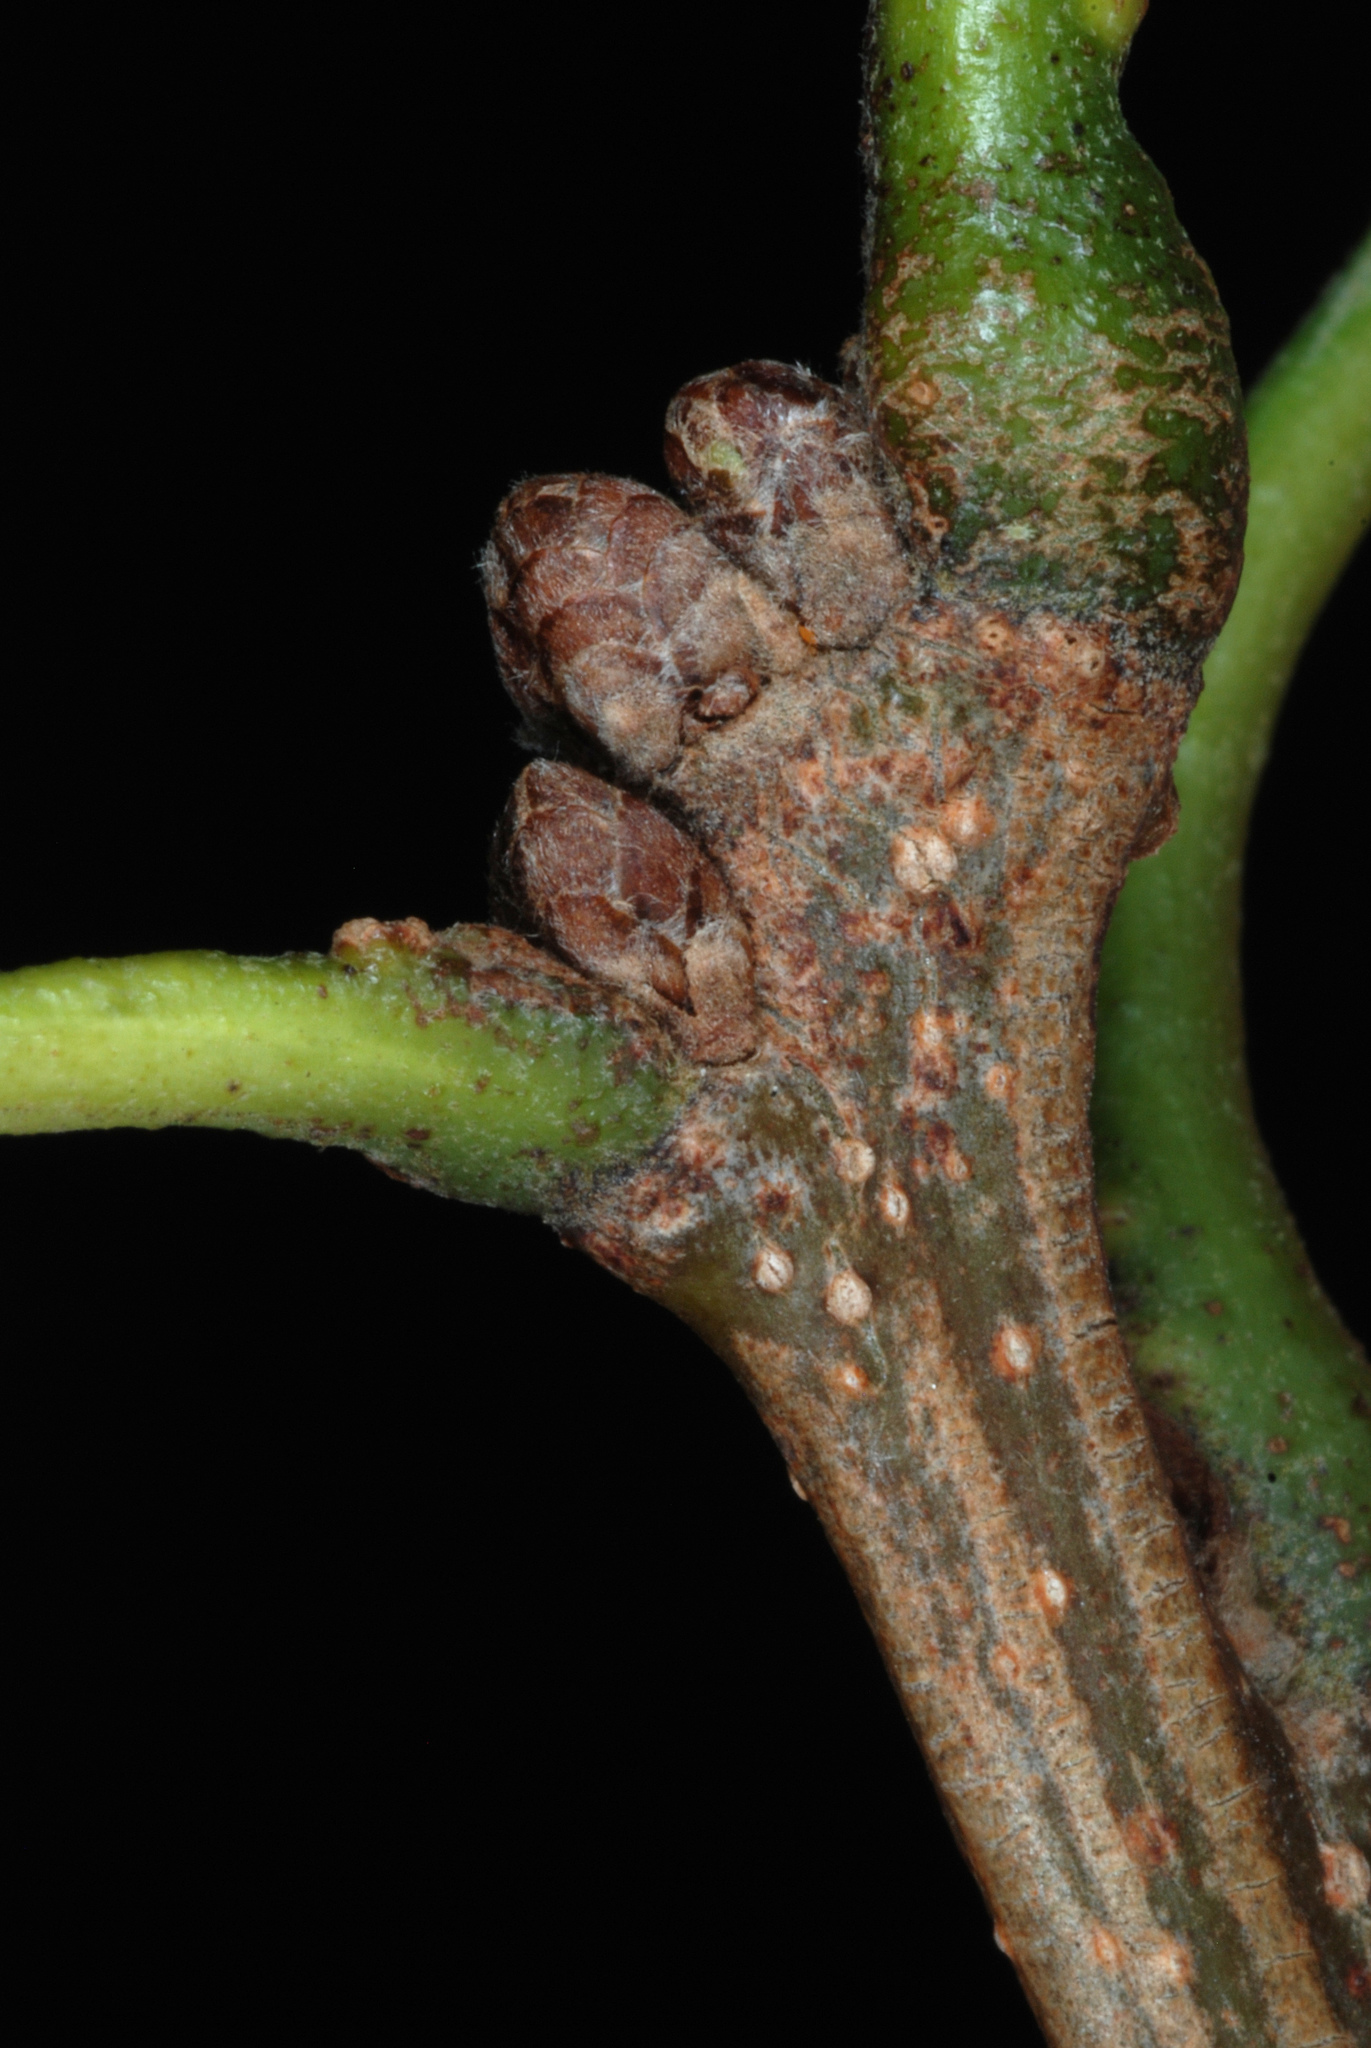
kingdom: Plantae
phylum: Tracheophyta
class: Magnoliopsida
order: Fagales
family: Fagaceae
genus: Quercus
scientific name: Quercus schuettei
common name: Schuette's oak
